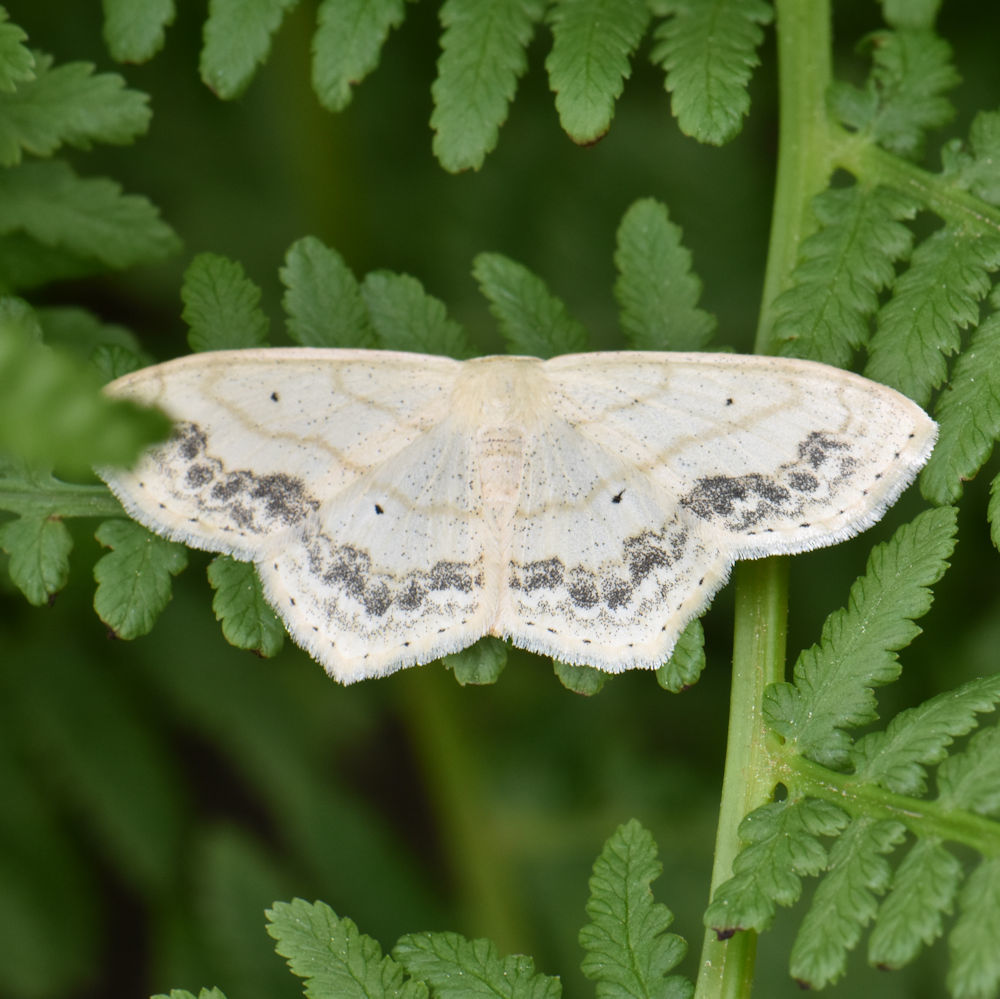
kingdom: Animalia
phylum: Arthropoda
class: Insecta
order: Lepidoptera
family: Geometridae
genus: Scopula
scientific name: Scopula limboundata
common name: Large lace border
